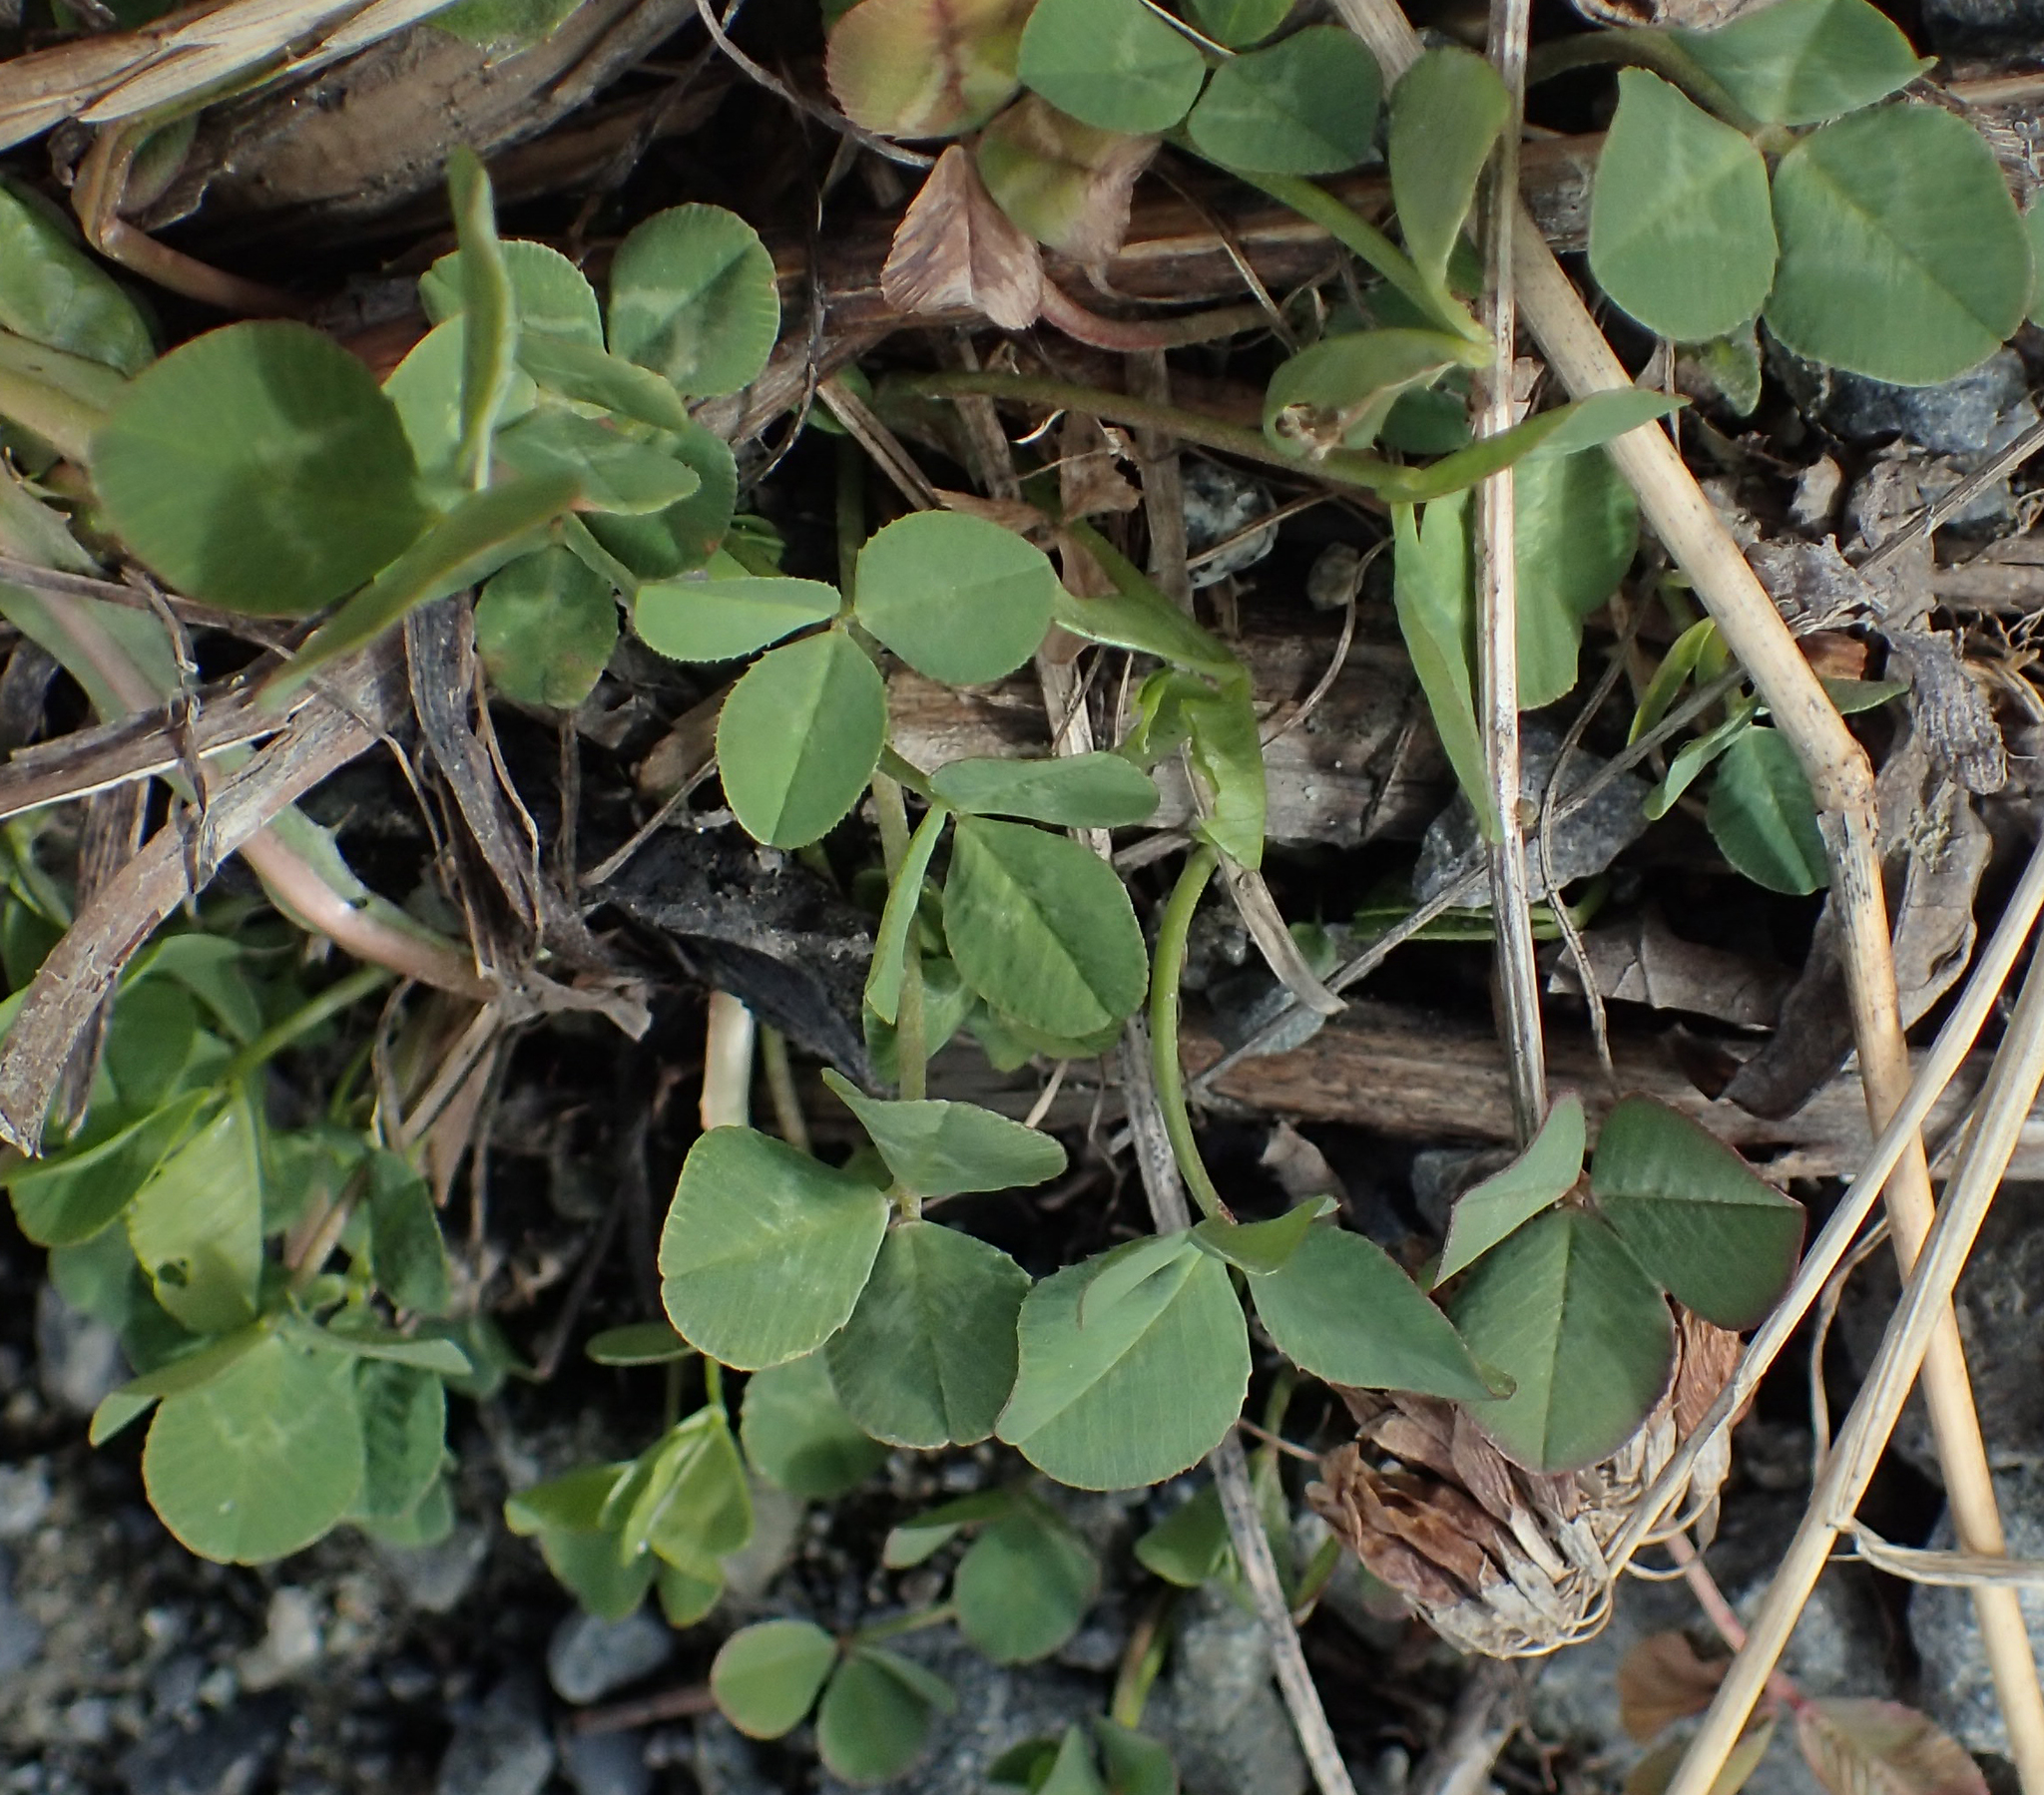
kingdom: Plantae
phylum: Tracheophyta
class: Magnoliopsida
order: Fabales
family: Fabaceae
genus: Trifolium
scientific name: Trifolium repens
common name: White clover
